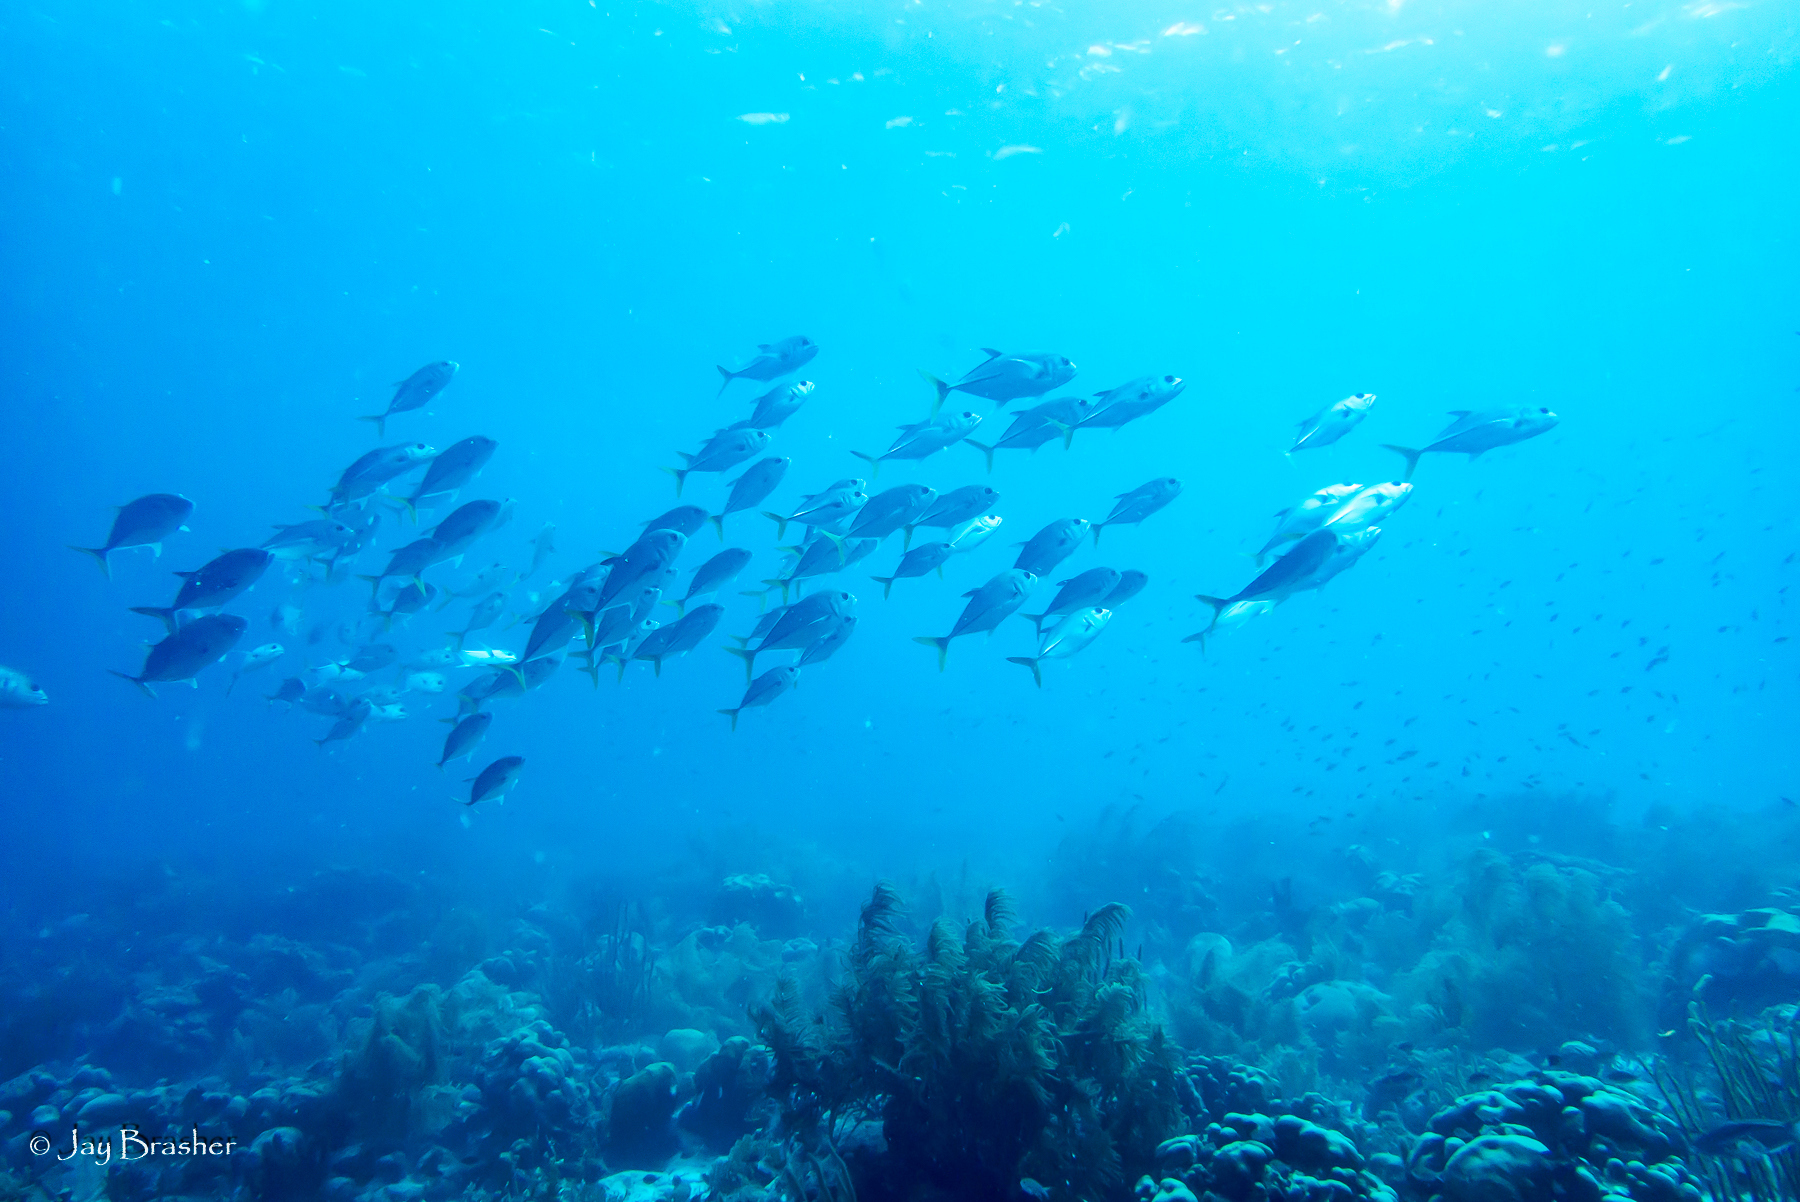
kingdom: Animalia
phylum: Chordata
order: Perciformes
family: Carangidae
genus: Caranx
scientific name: Caranx latus
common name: Horse eye jack
